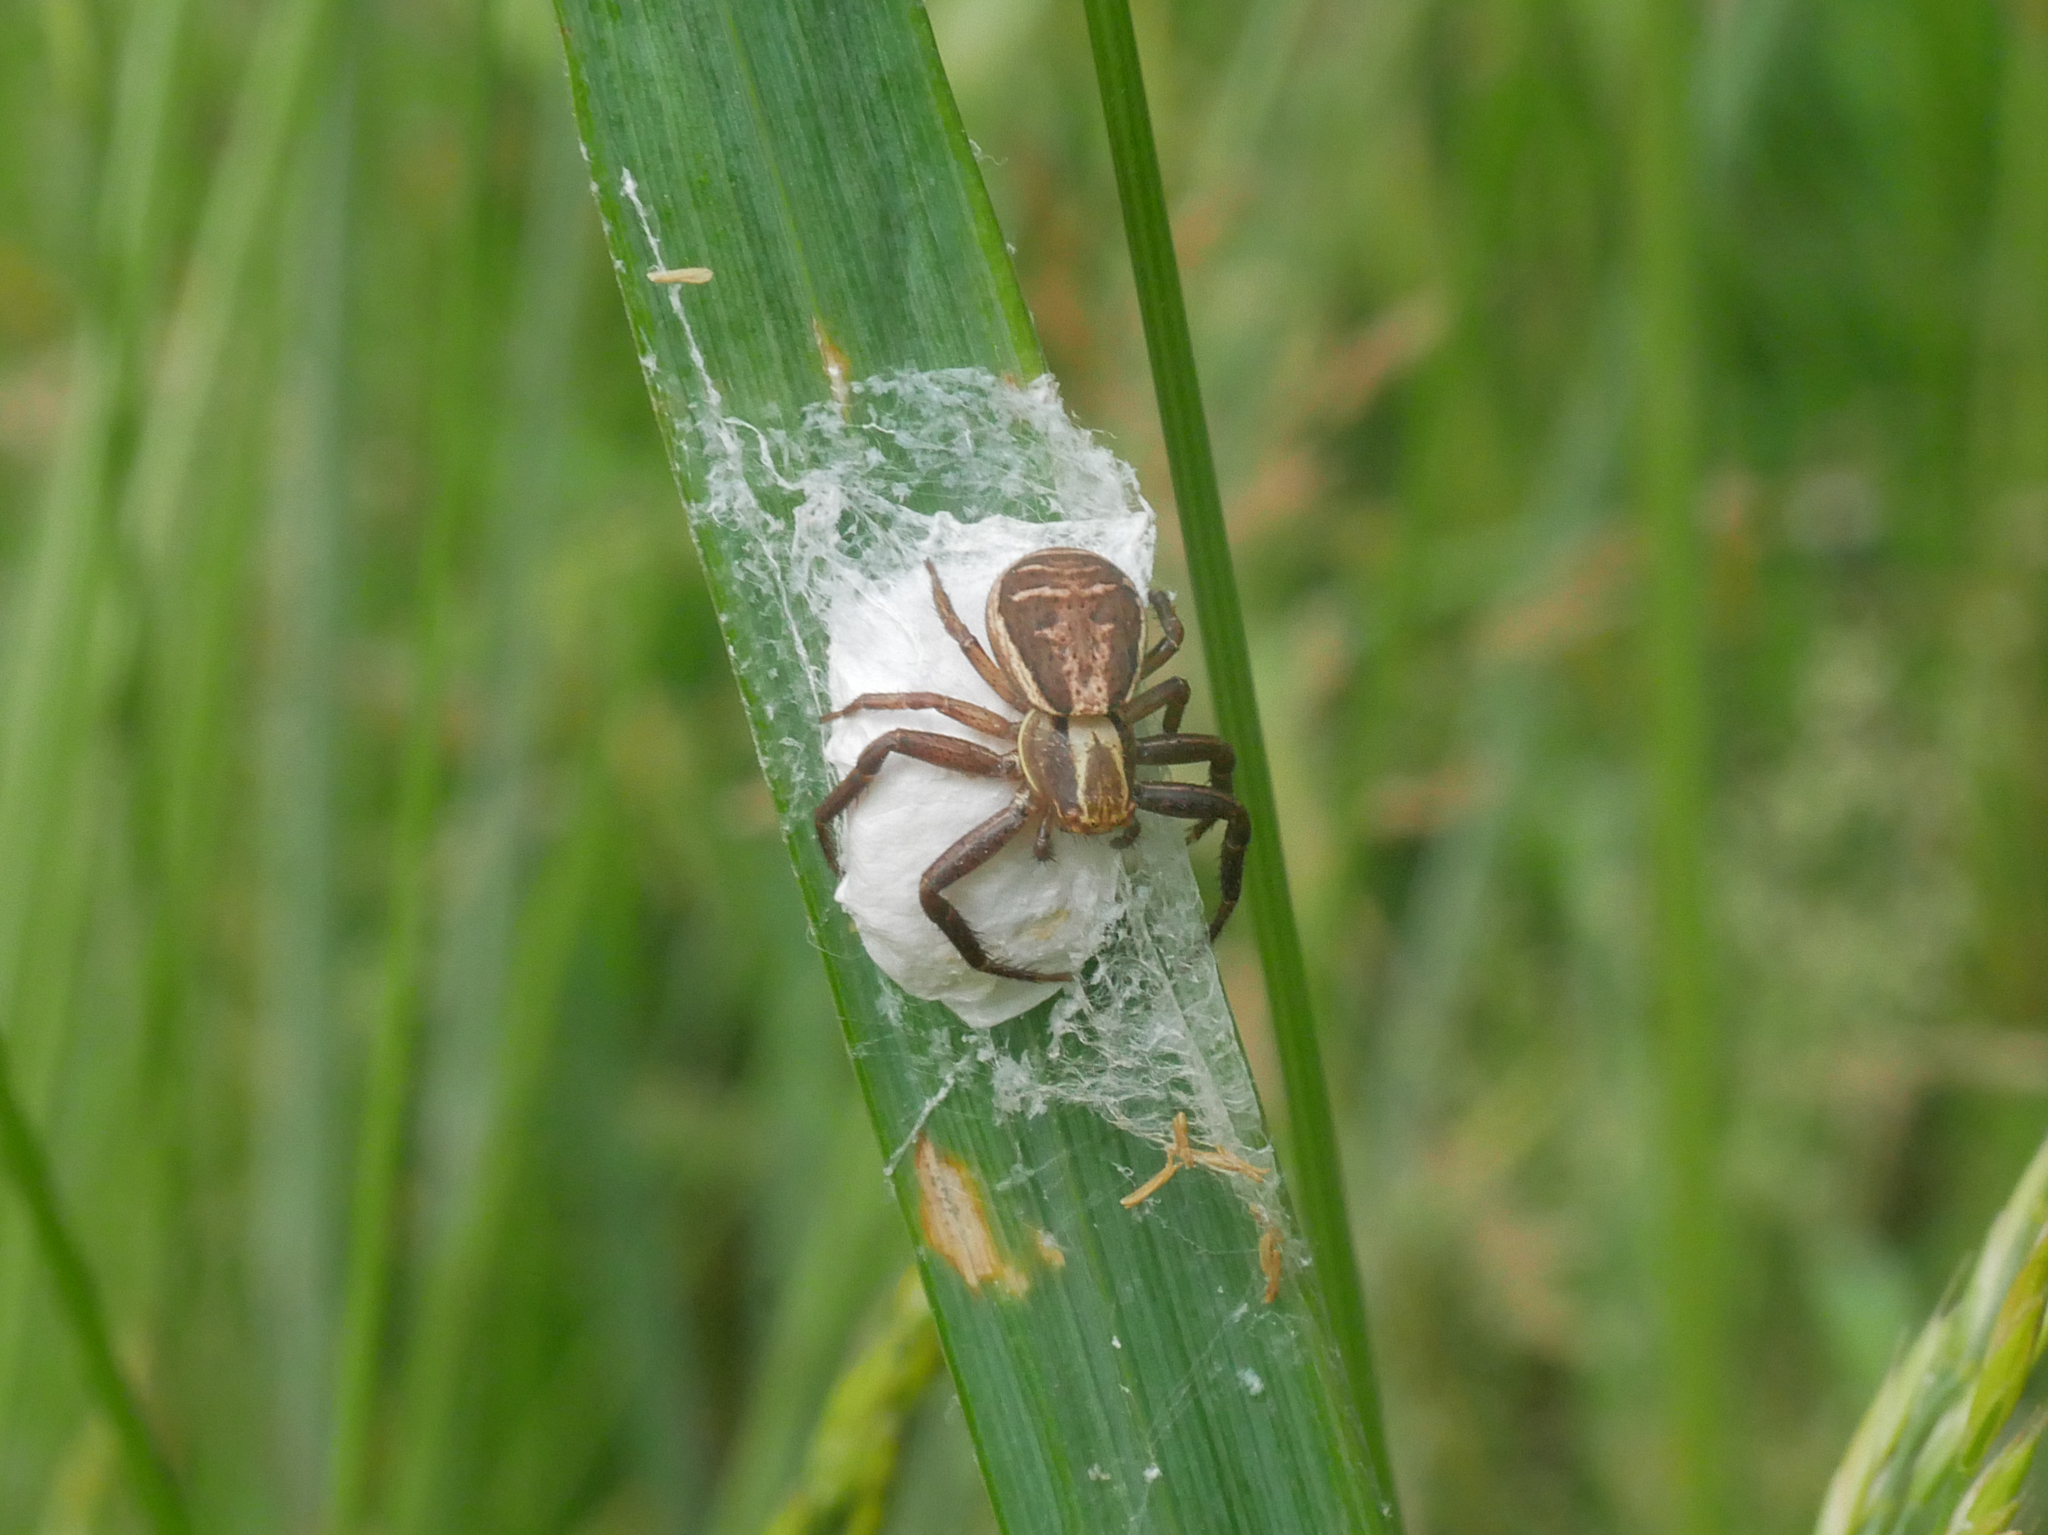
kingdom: Animalia
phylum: Arthropoda
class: Arachnida
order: Araneae
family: Thomisidae
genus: Xysticus
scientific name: Xysticus ulmi
